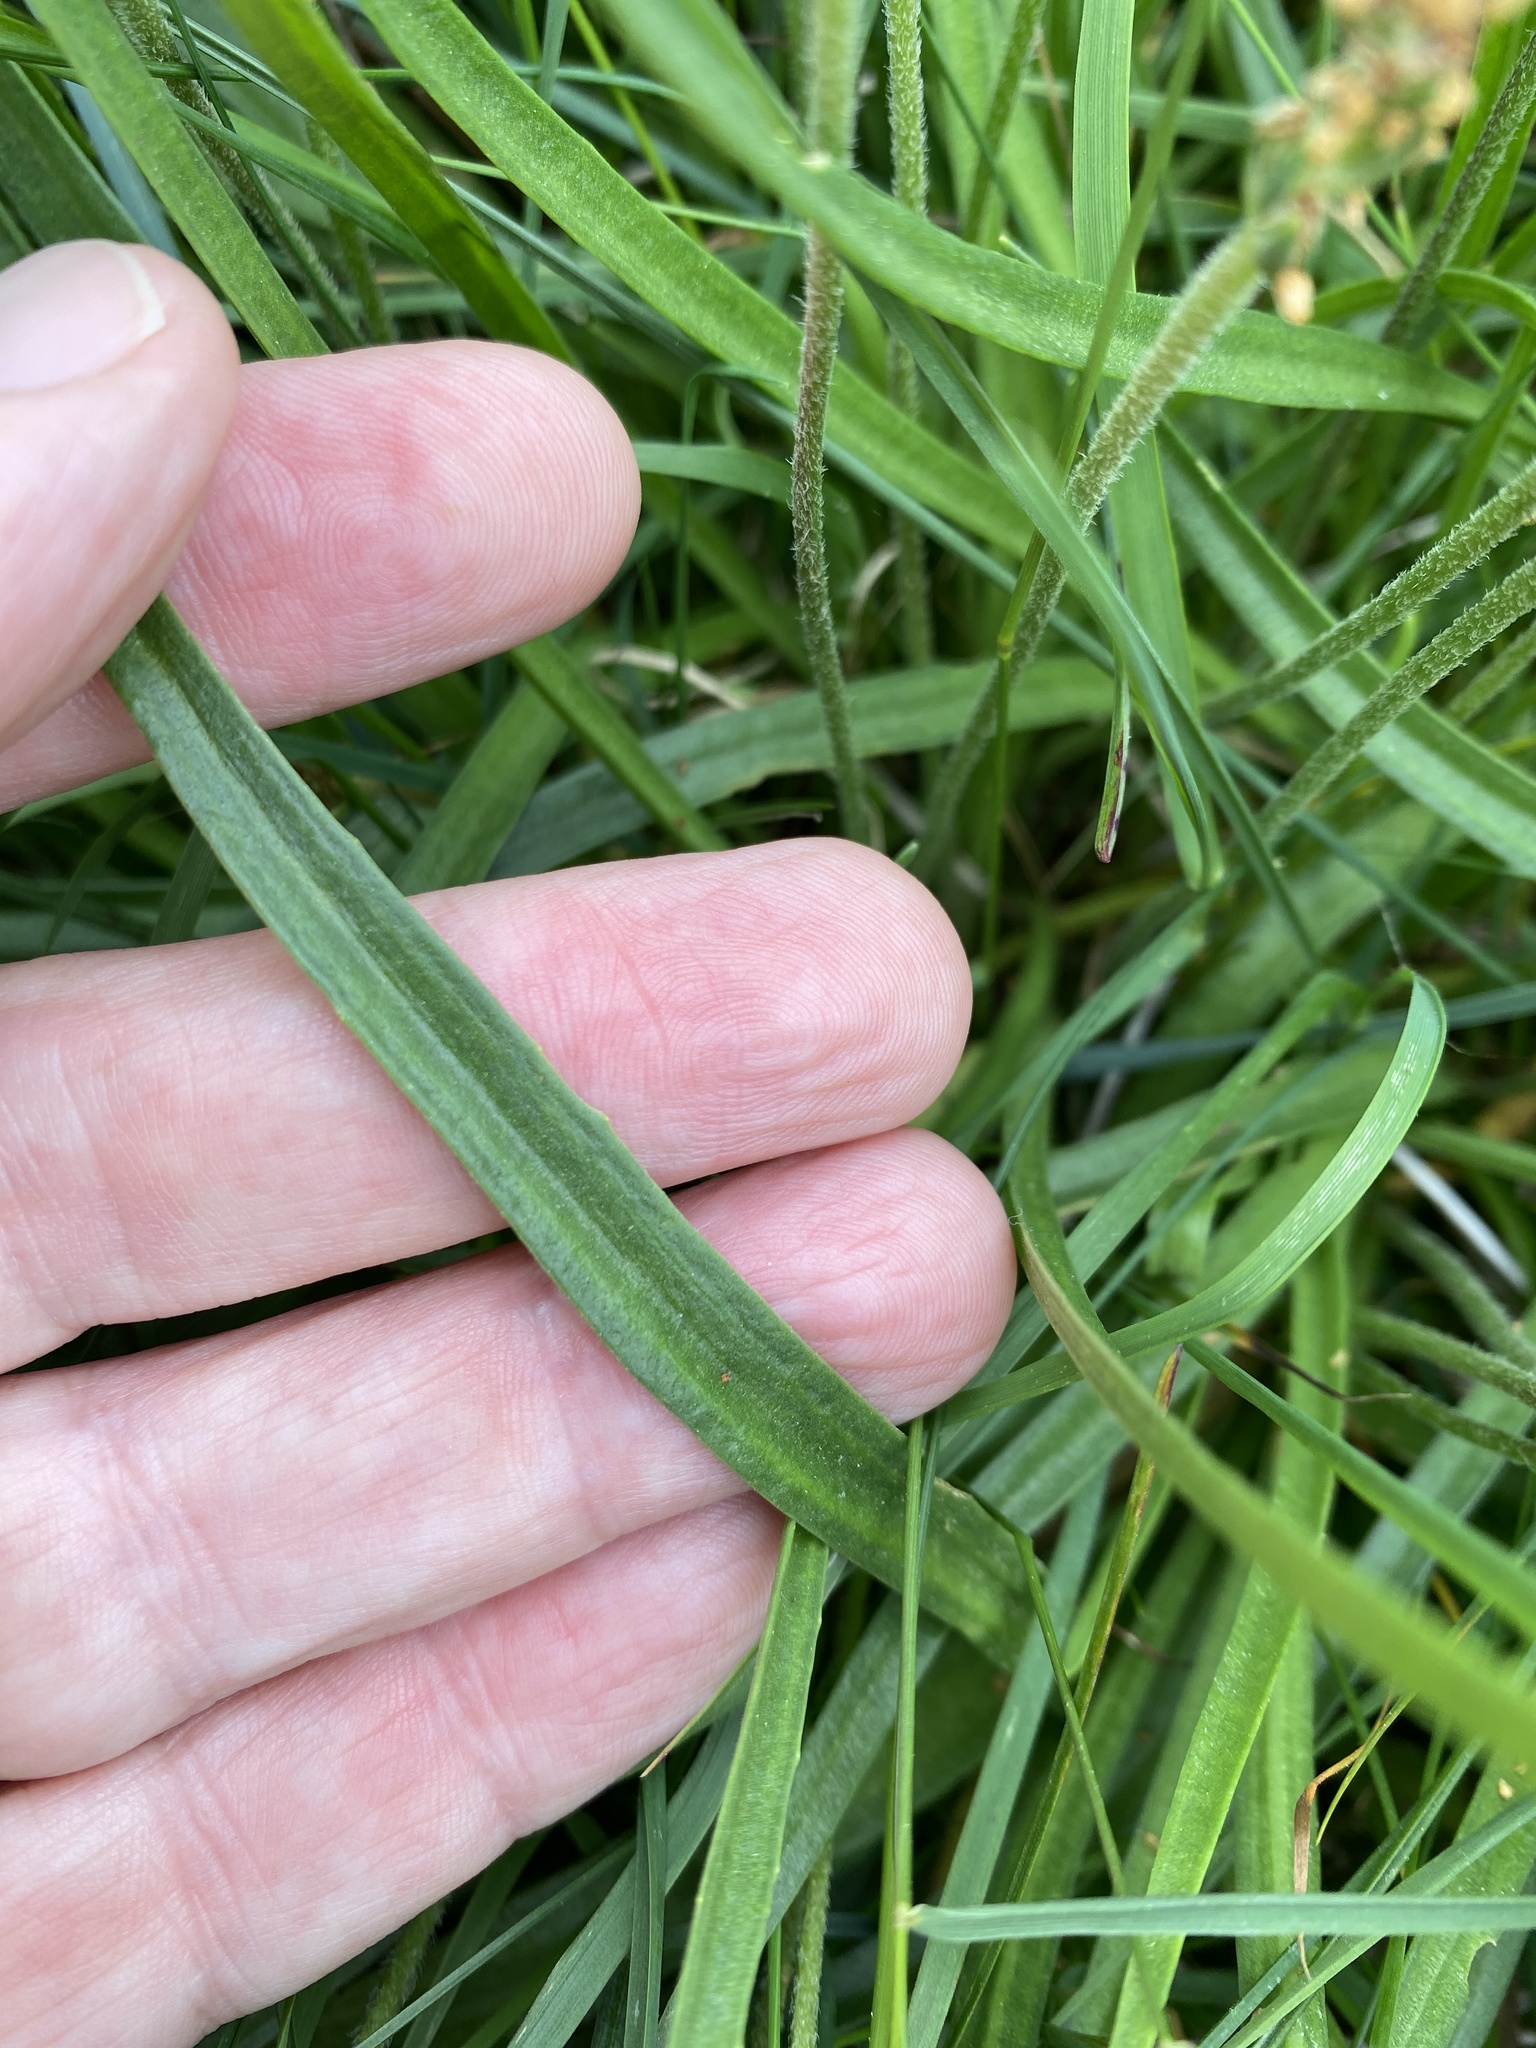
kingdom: Plantae
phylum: Tracheophyta
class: Magnoliopsida
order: Lamiales
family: Plantaginaceae
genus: Plantago
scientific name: Plantago maritima
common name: Sea plantain
